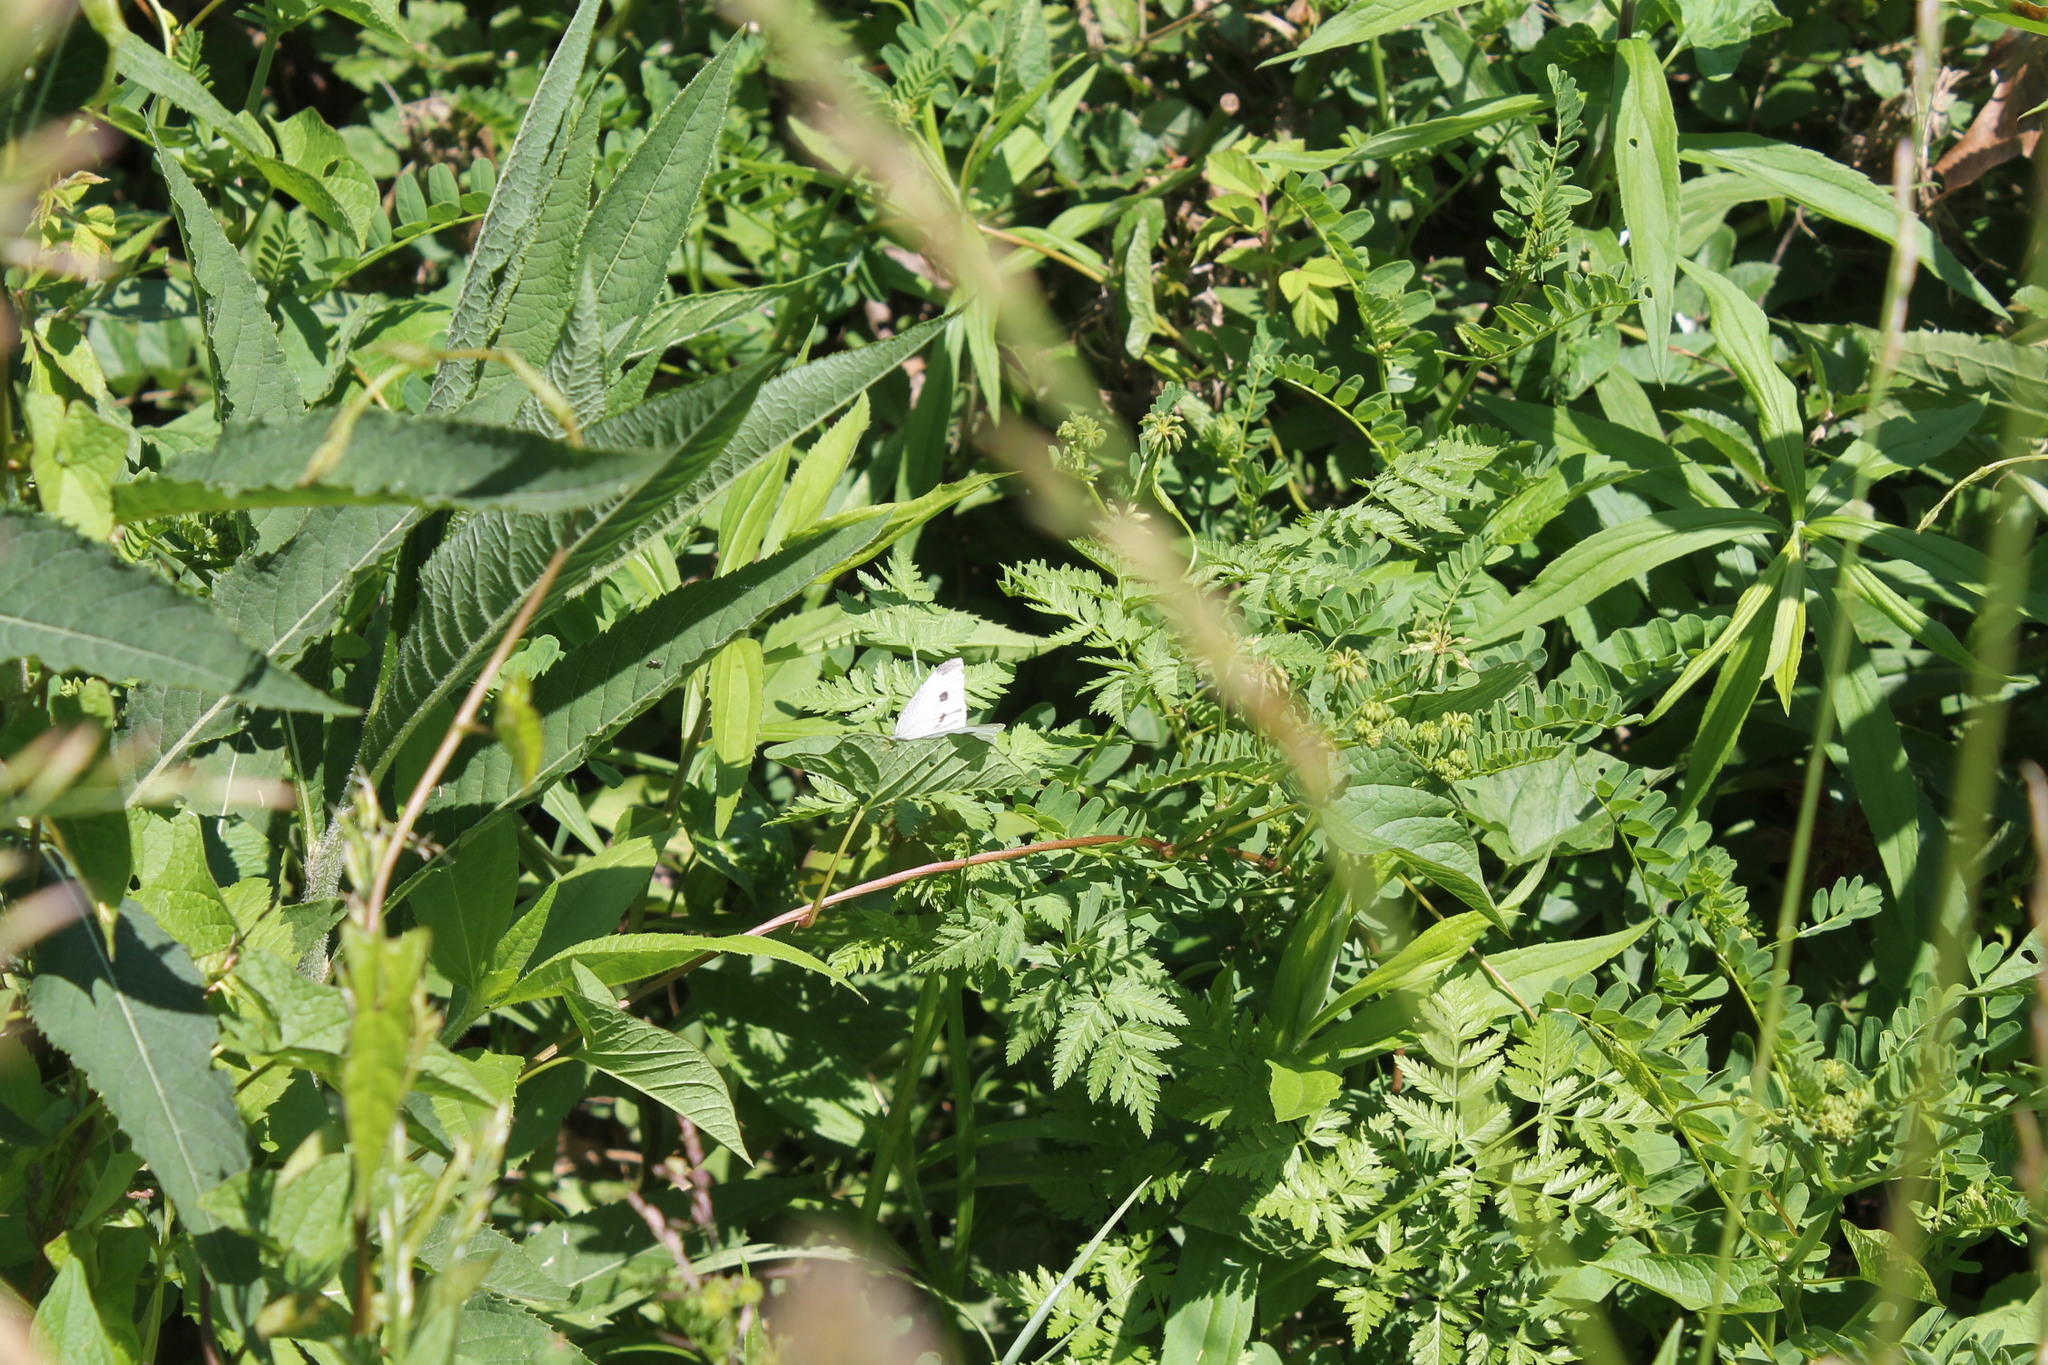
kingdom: Animalia
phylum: Arthropoda
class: Insecta
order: Lepidoptera
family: Pieridae
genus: Pieris
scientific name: Pieris rapae
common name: Small white
